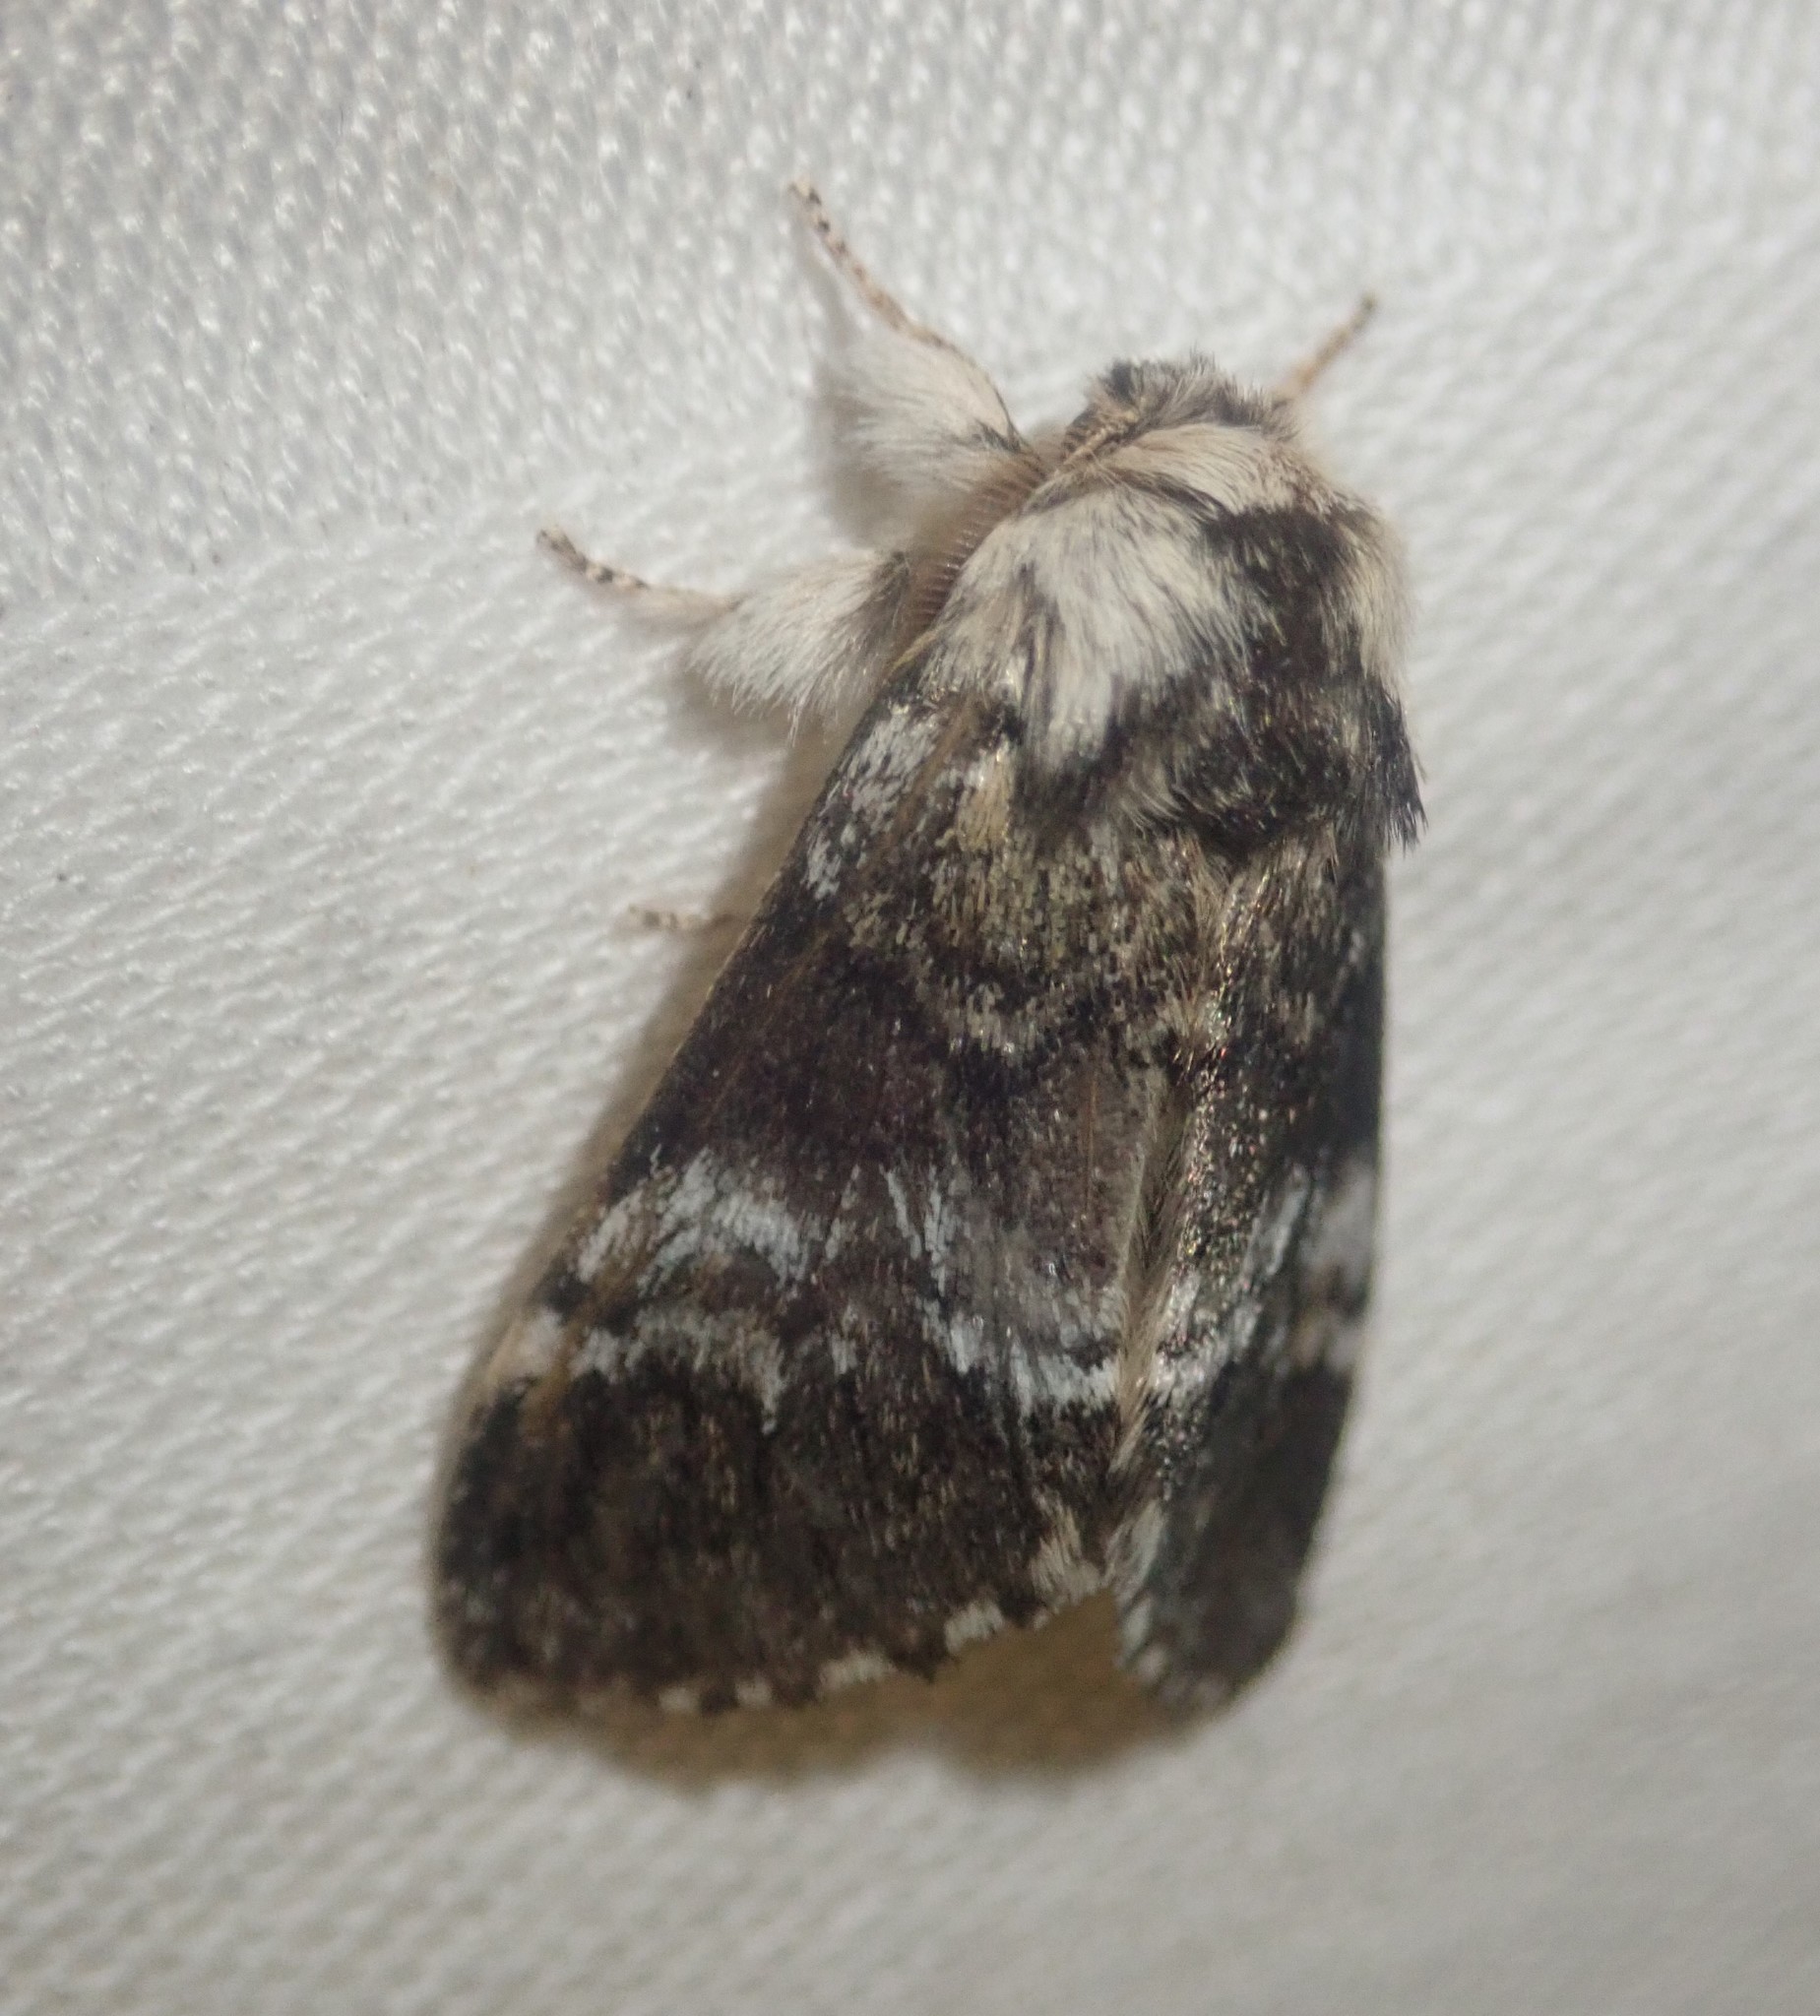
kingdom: Animalia
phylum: Arthropoda
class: Insecta
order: Lepidoptera
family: Notodontidae
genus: Drymonia
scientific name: Drymonia dodonaea
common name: Marbled brown
